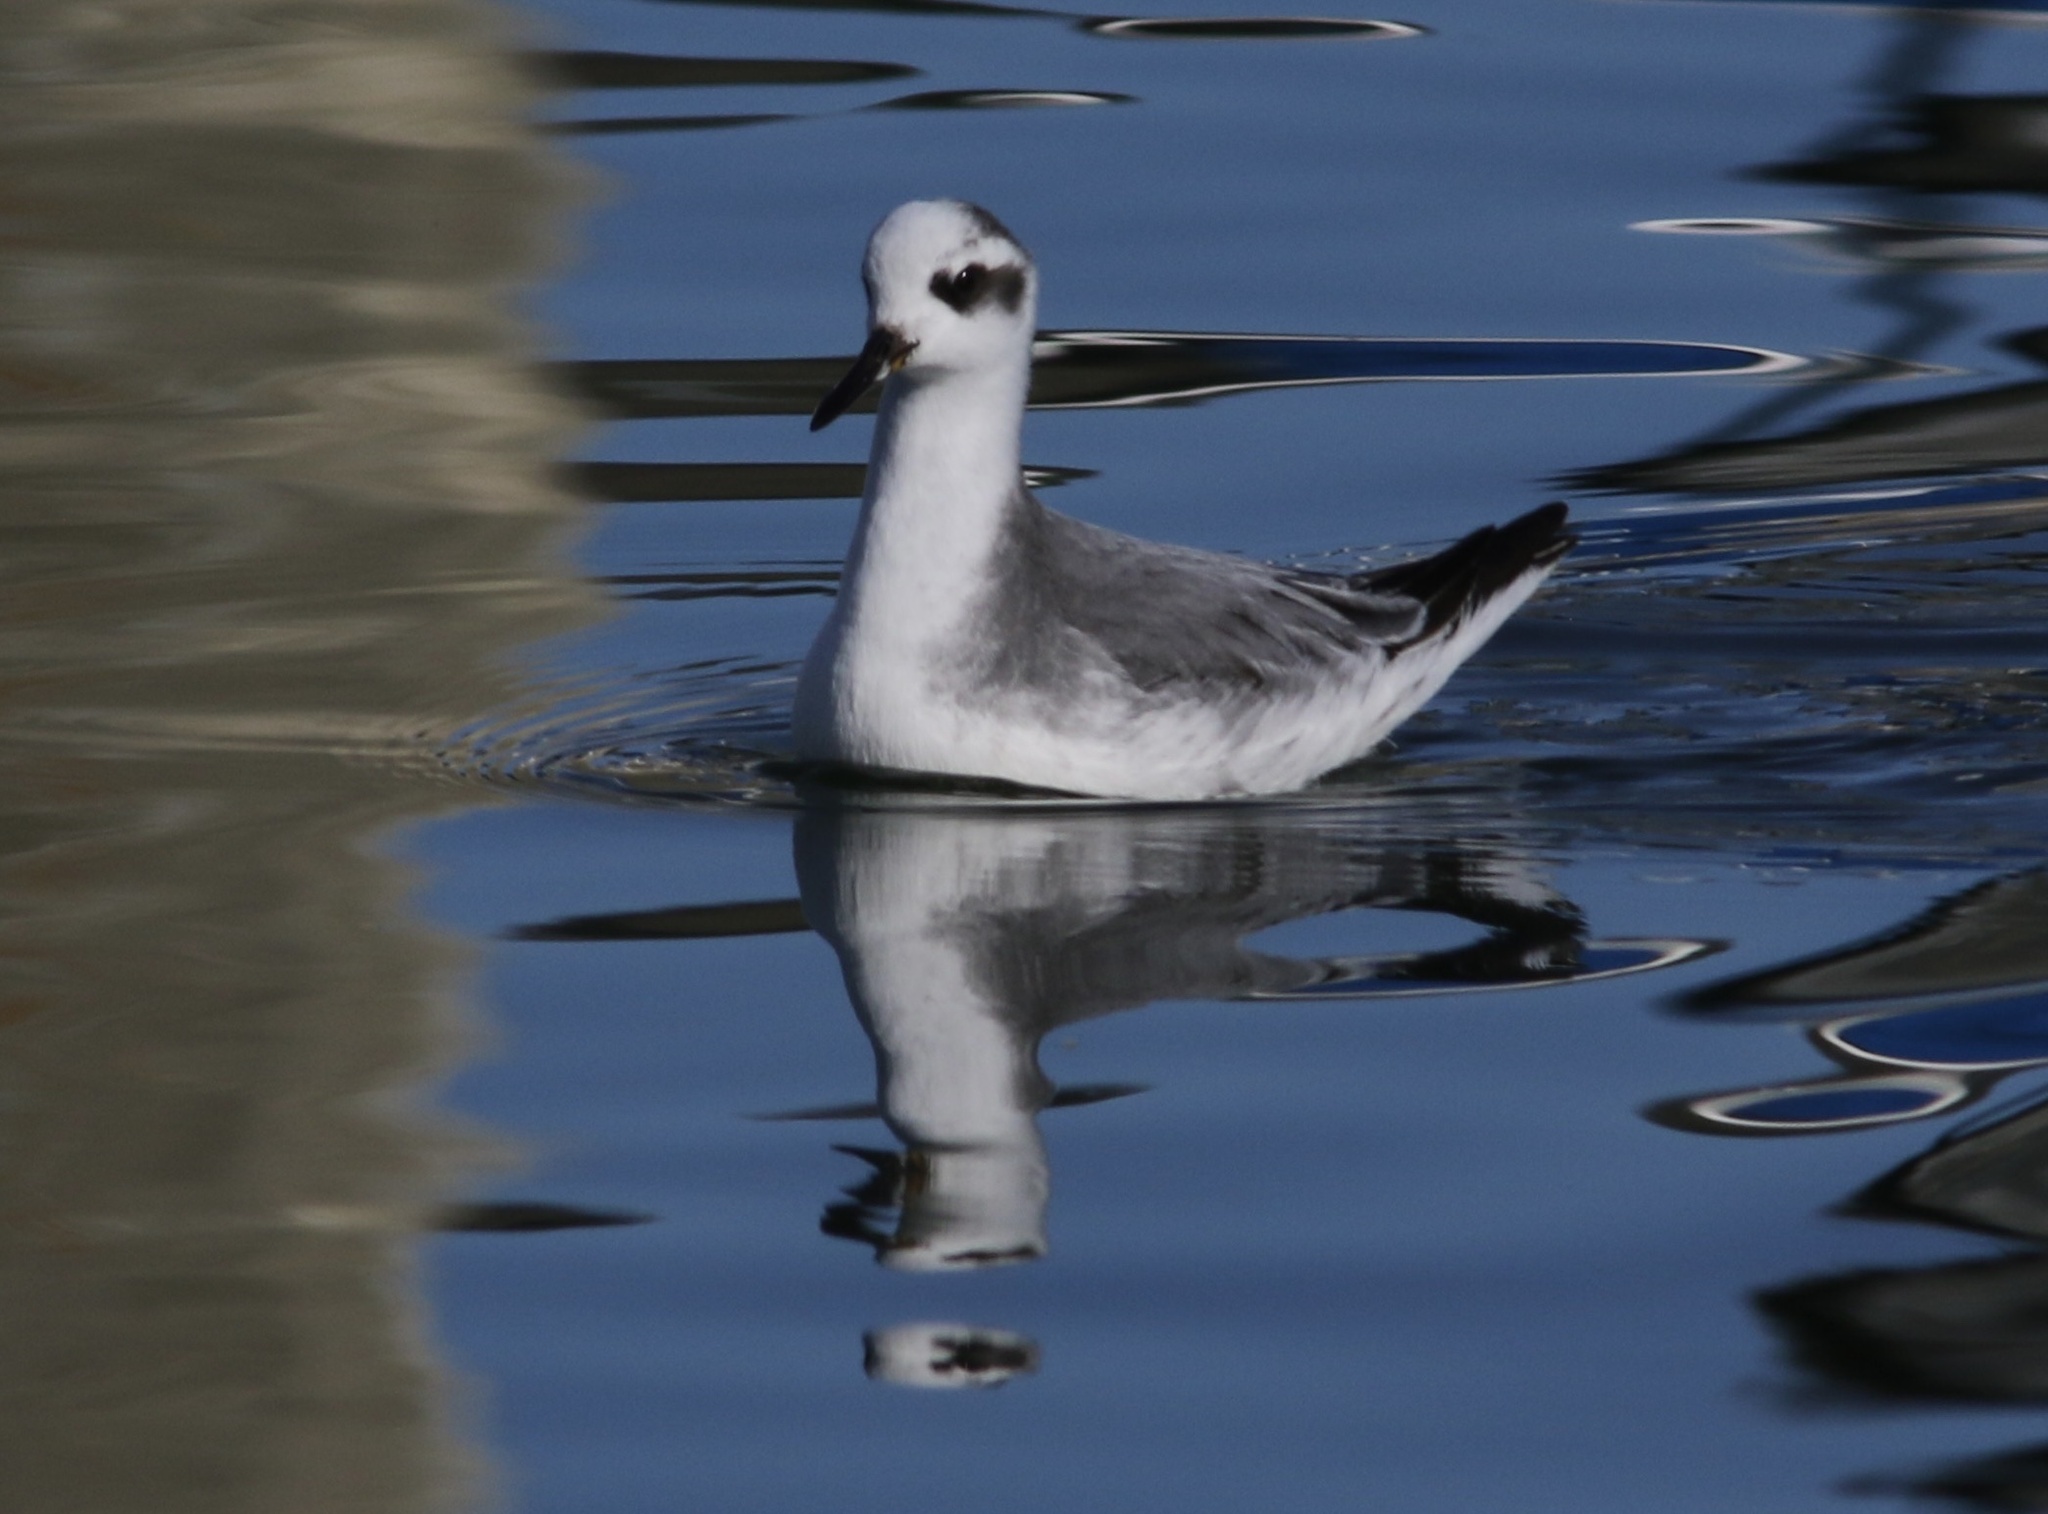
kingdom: Animalia
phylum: Chordata
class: Aves
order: Charadriiformes
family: Scolopacidae
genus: Phalaropus
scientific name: Phalaropus fulicarius
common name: Red phalarope
